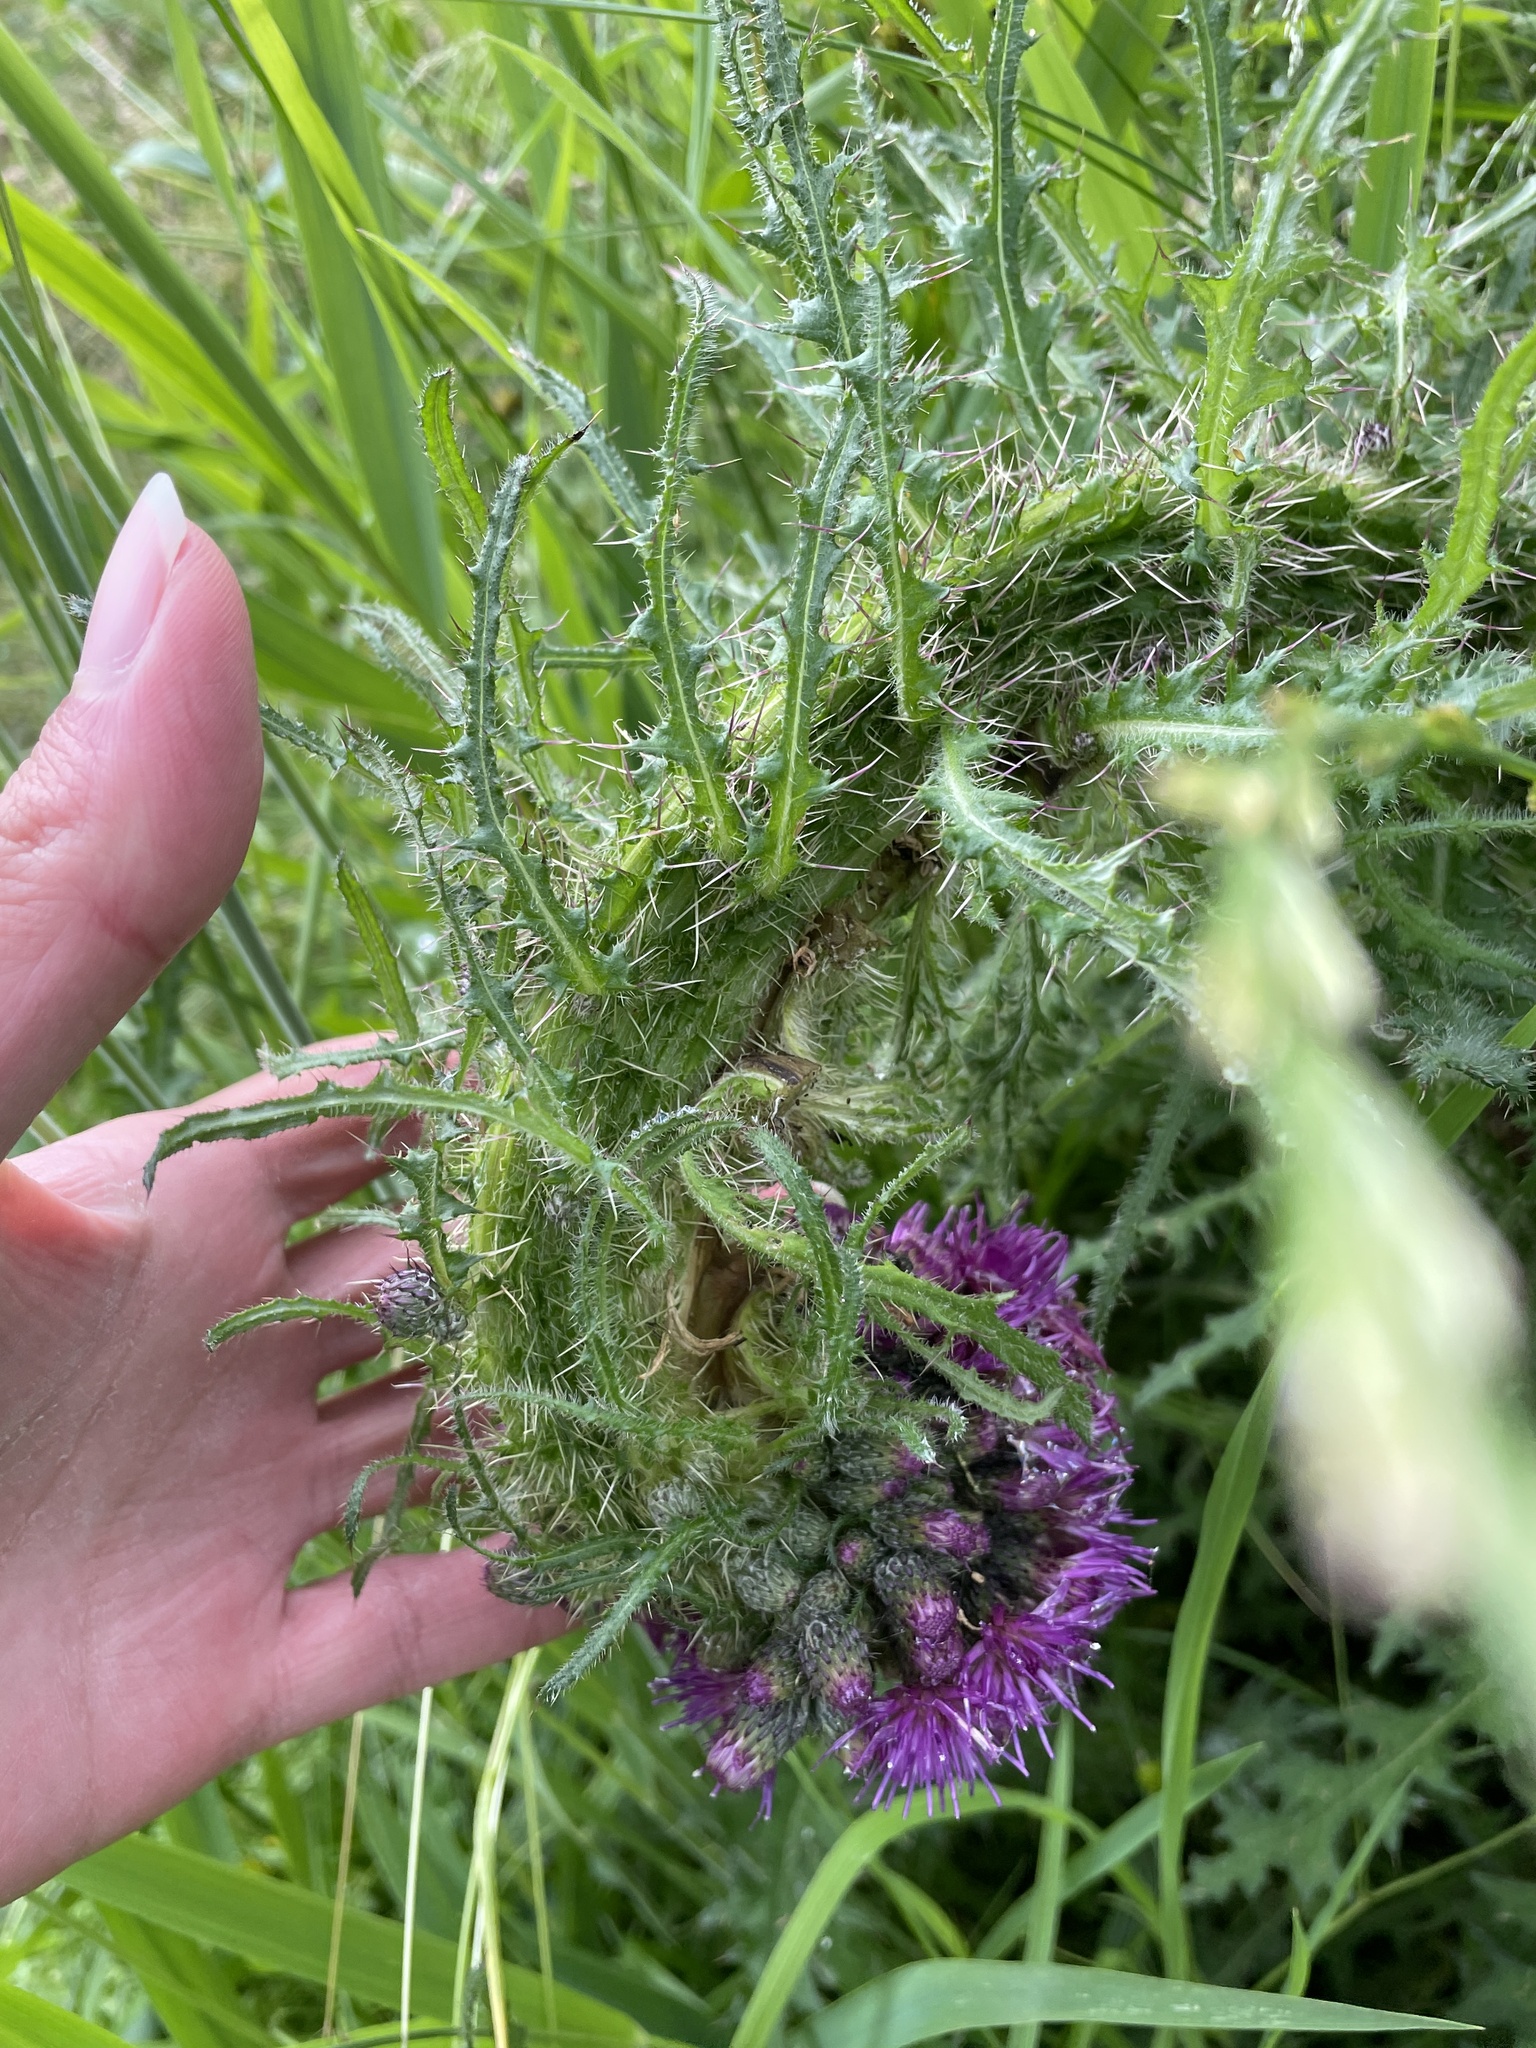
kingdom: Plantae
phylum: Tracheophyta
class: Magnoliopsida
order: Asterales
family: Asteraceae
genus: Cirsium
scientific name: Cirsium palustre
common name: Marsh thistle
